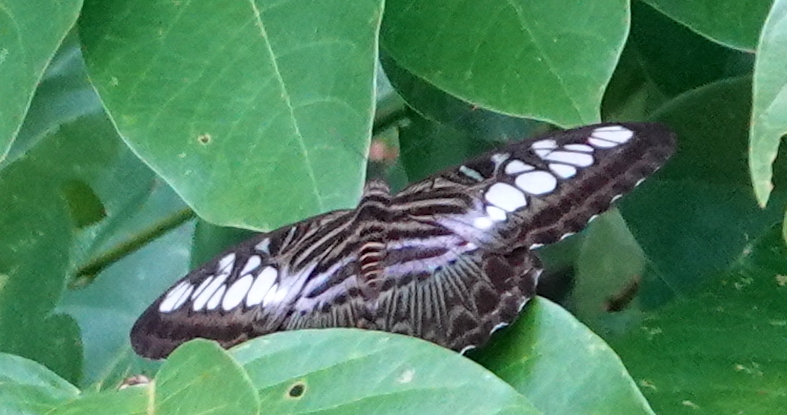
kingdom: Animalia
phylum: Arthropoda
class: Insecta
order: Lepidoptera
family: Nymphalidae
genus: Kallima
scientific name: Kallima sylvia
